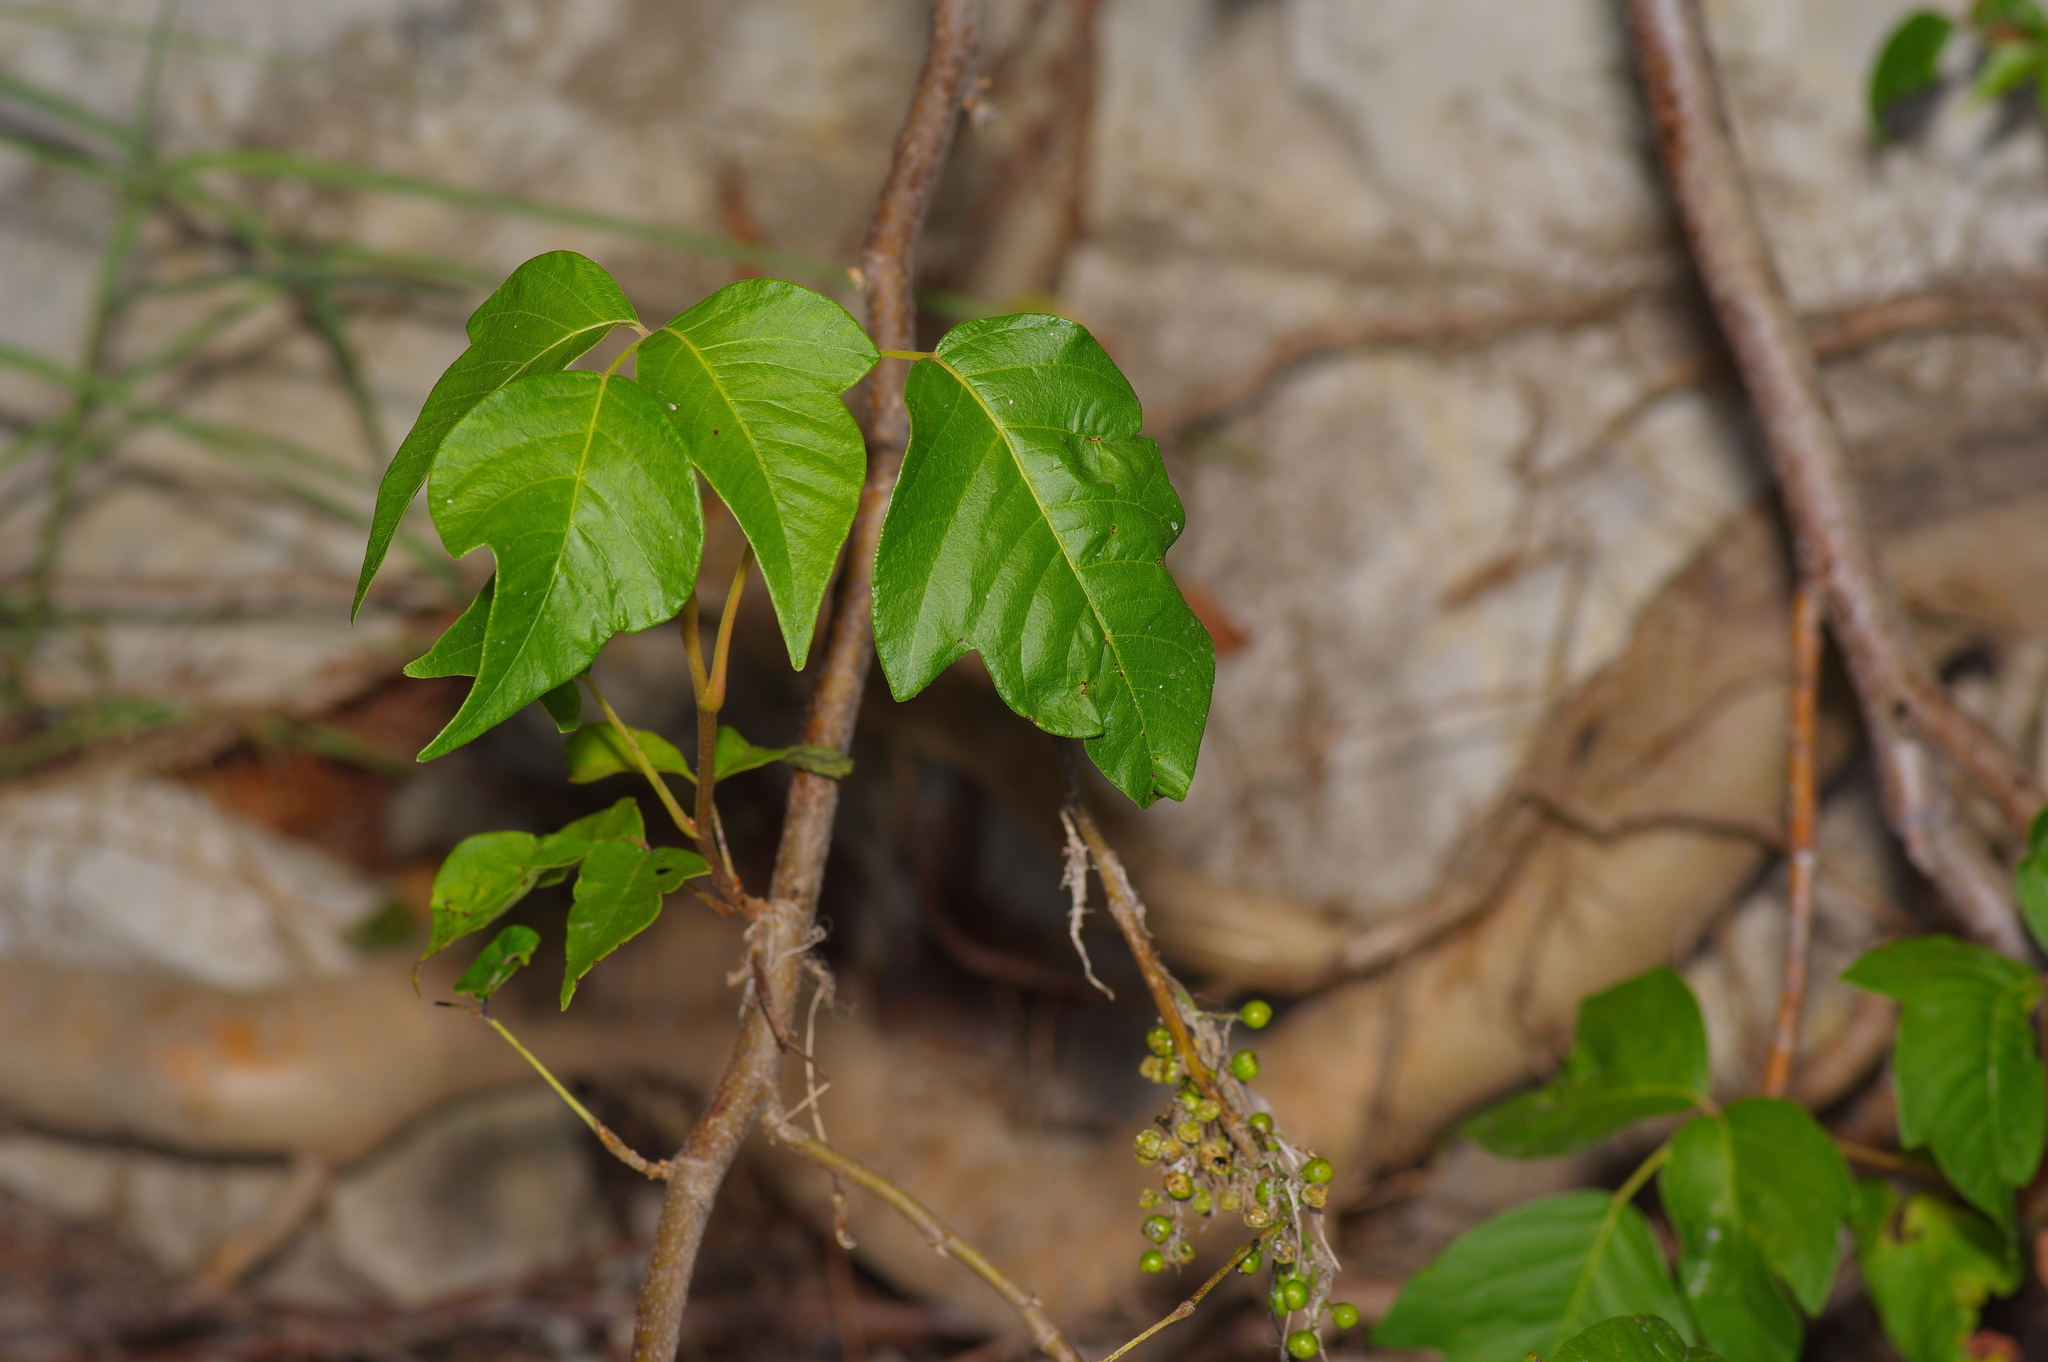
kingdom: Plantae
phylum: Tracheophyta
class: Magnoliopsida
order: Sapindales
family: Anacardiaceae
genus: Toxicodendron
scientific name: Toxicodendron radicans
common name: Poison ivy
